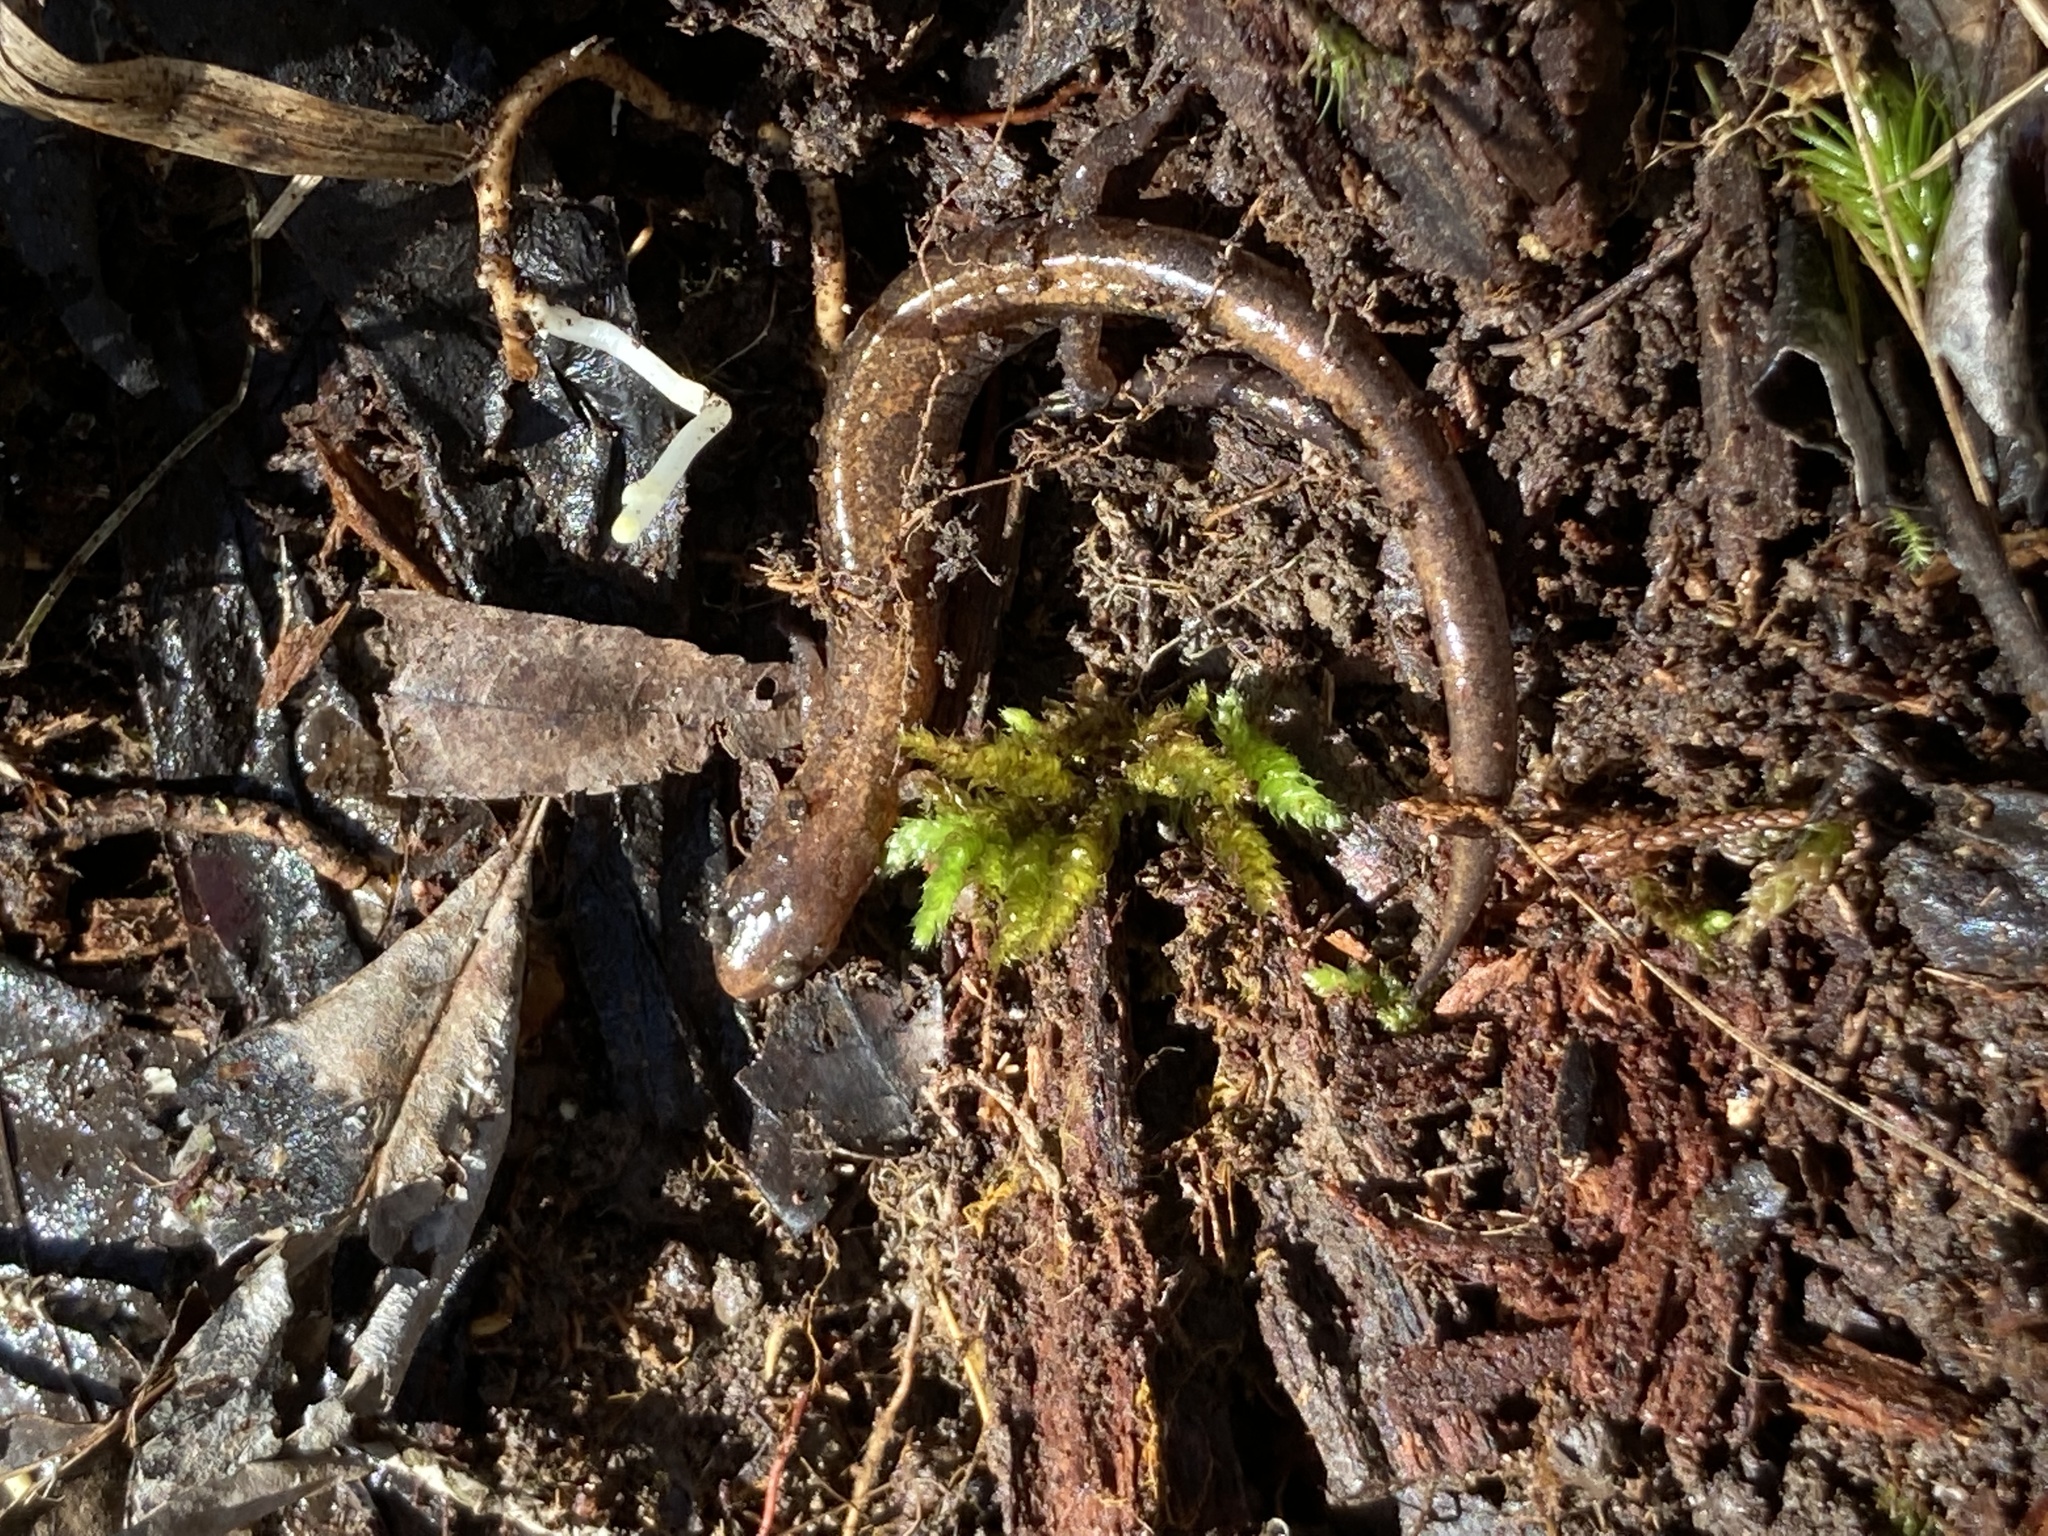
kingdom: Animalia
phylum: Chordata
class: Amphibia
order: Caudata
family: Plethodontidae
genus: Plethodon
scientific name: Plethodon dorsalis
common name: Northern zigzag salamander
